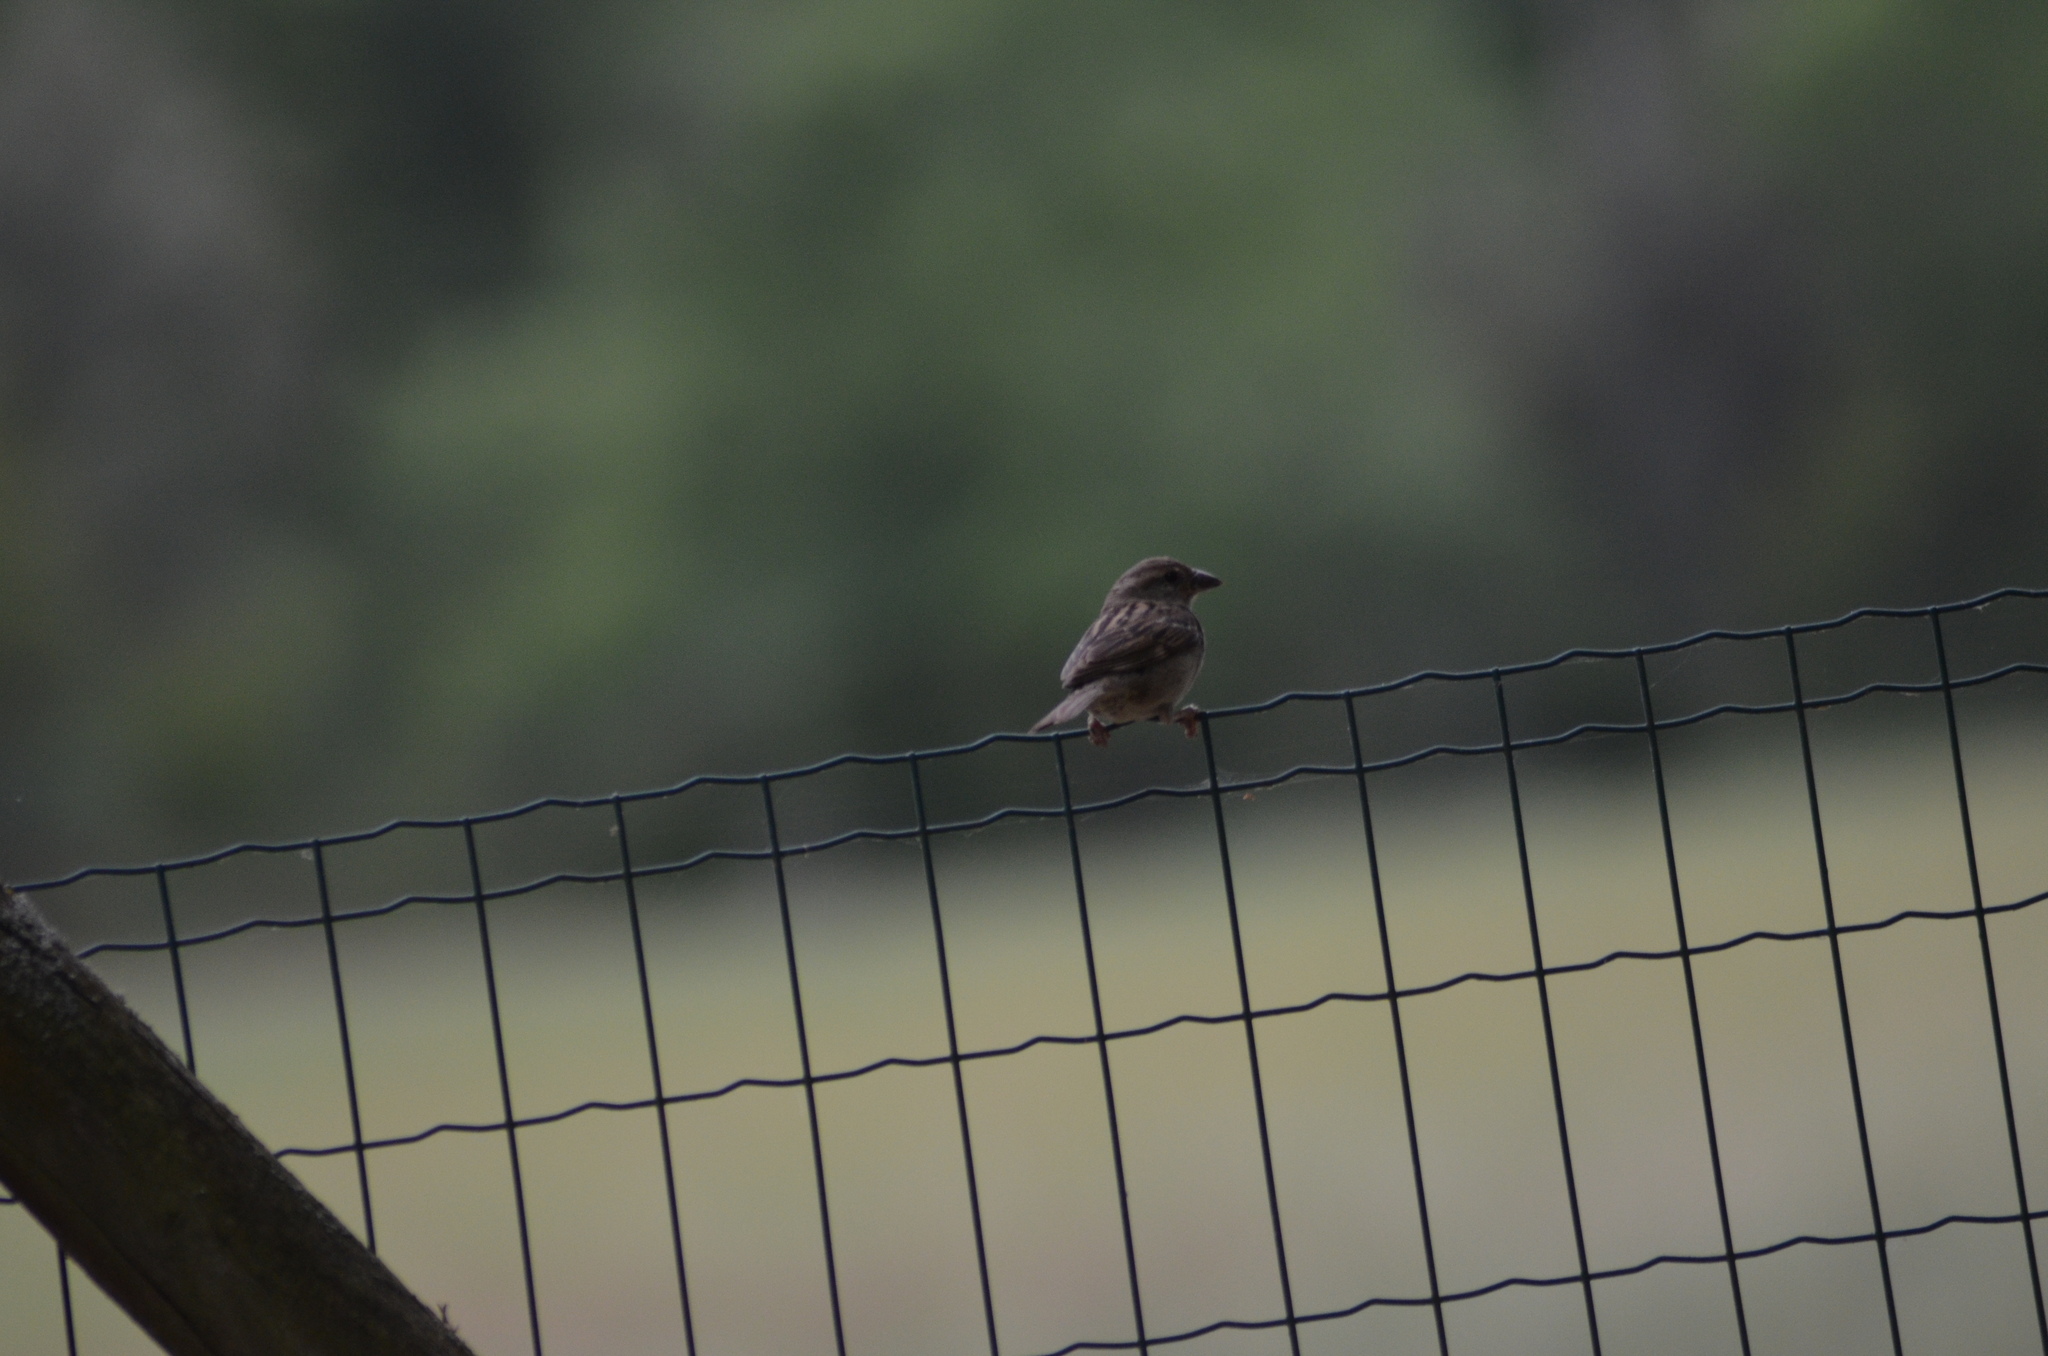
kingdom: Animalia
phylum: Chordata
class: Aves
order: Passeriformes
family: Passeridae
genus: Passer
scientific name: Passer domesticus
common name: House sparrow
